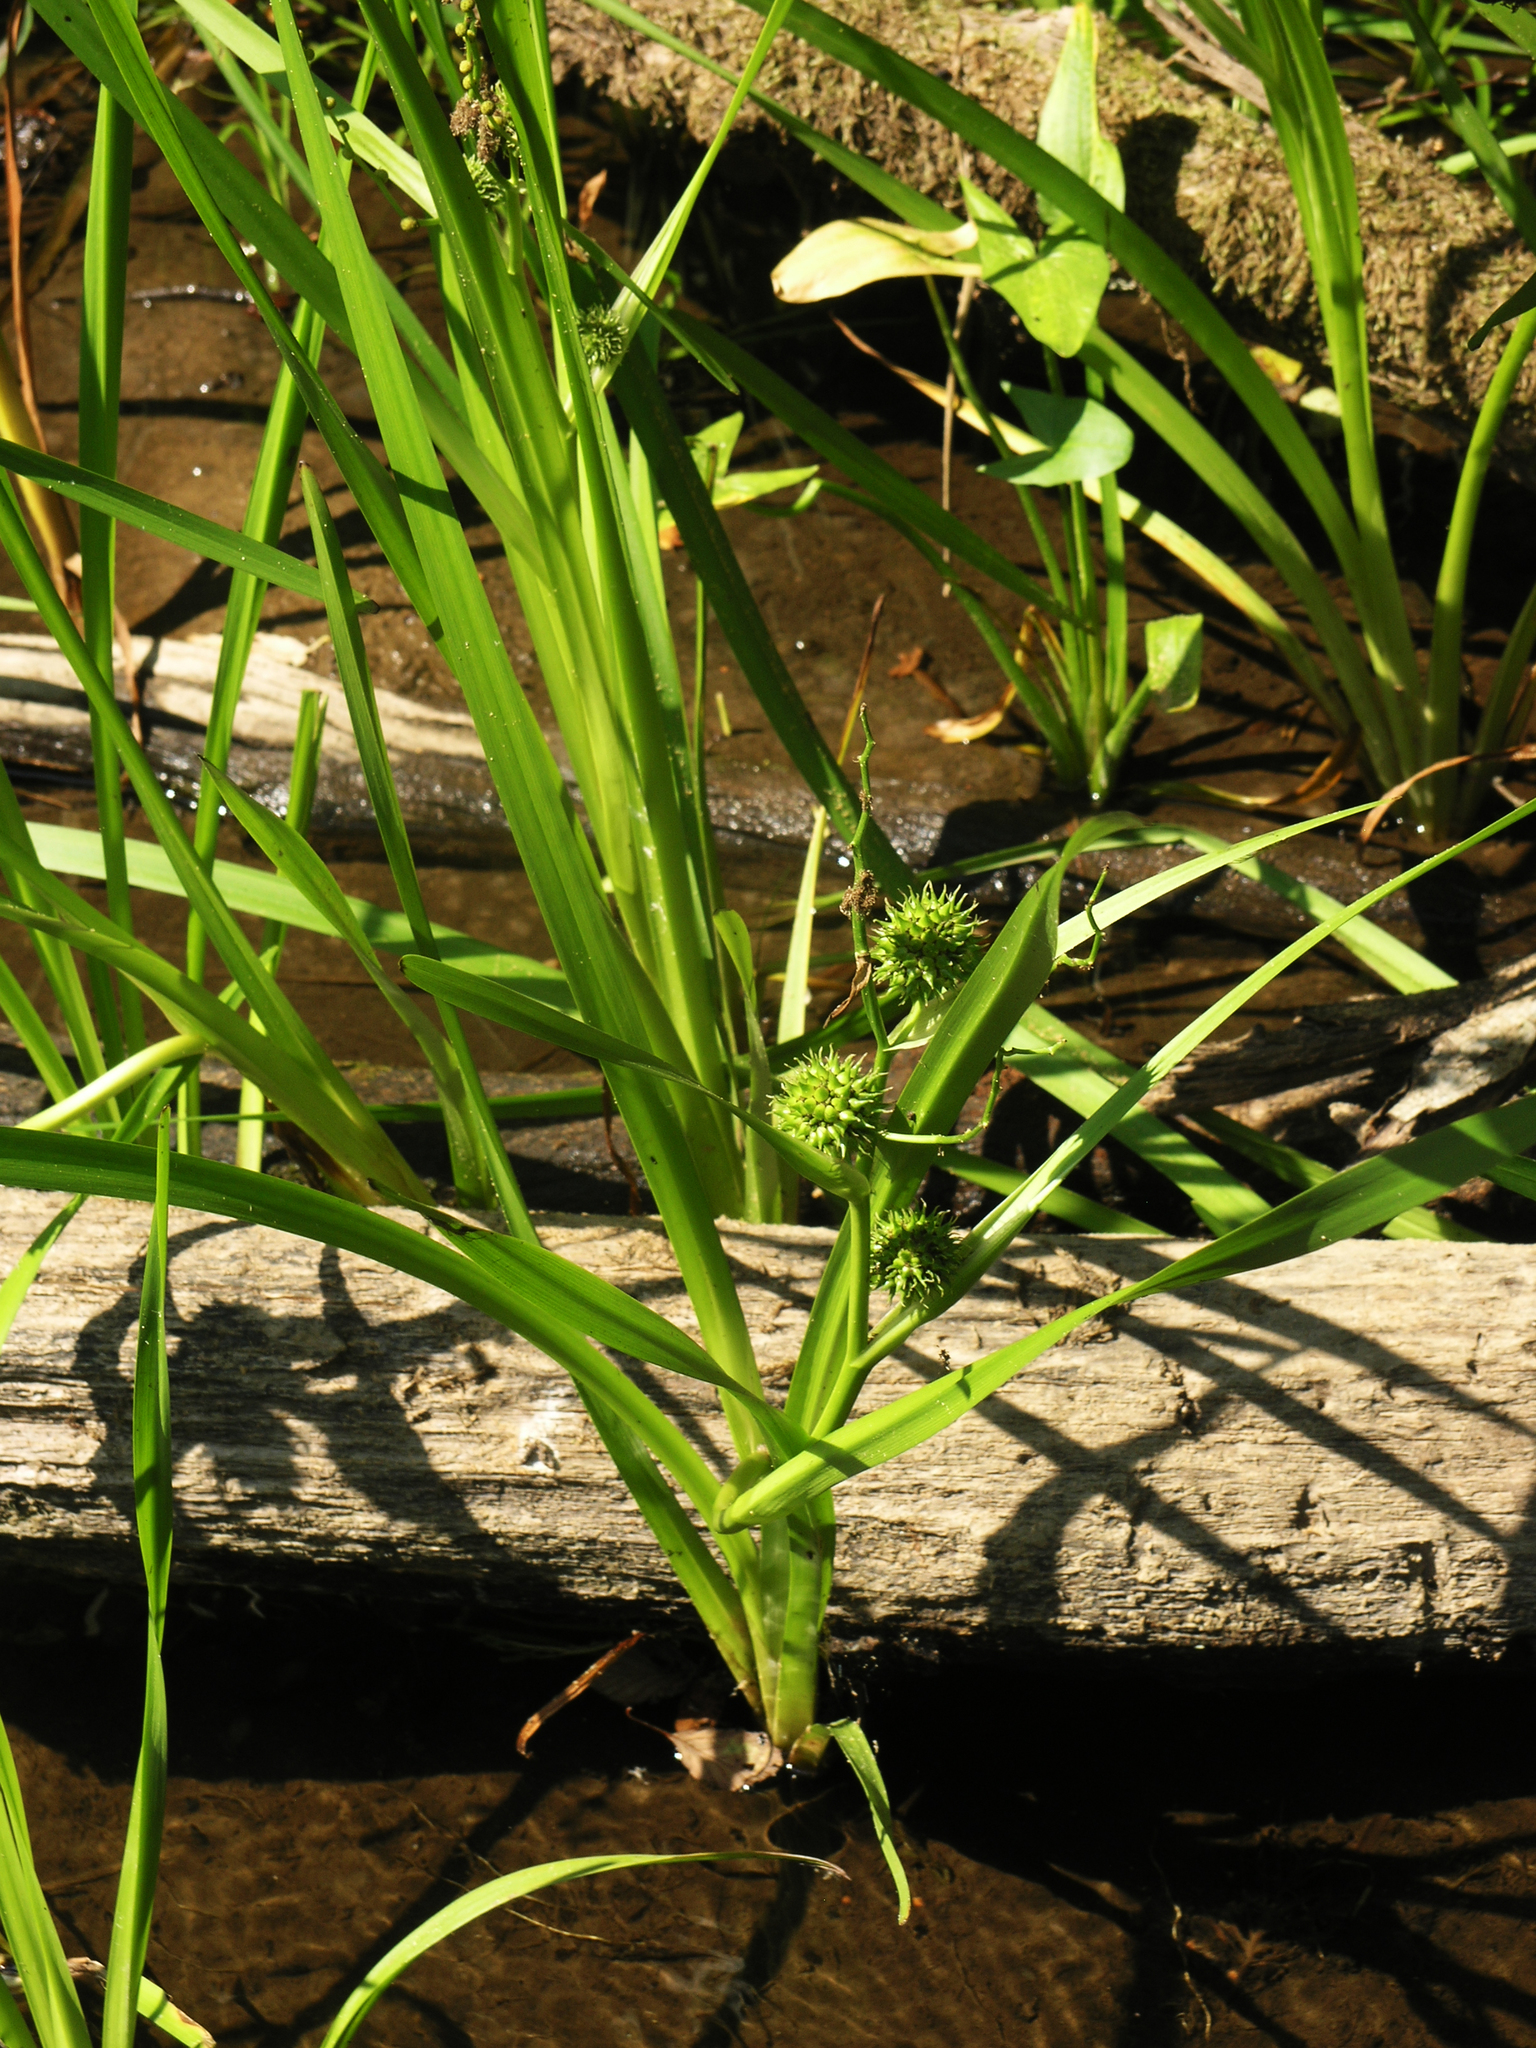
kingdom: Plantae
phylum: Tracheophyta
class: Liliopsida
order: Poales
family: Typhaceae
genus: Sparganium
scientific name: Sparganium erectum
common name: Branched bur-reed
